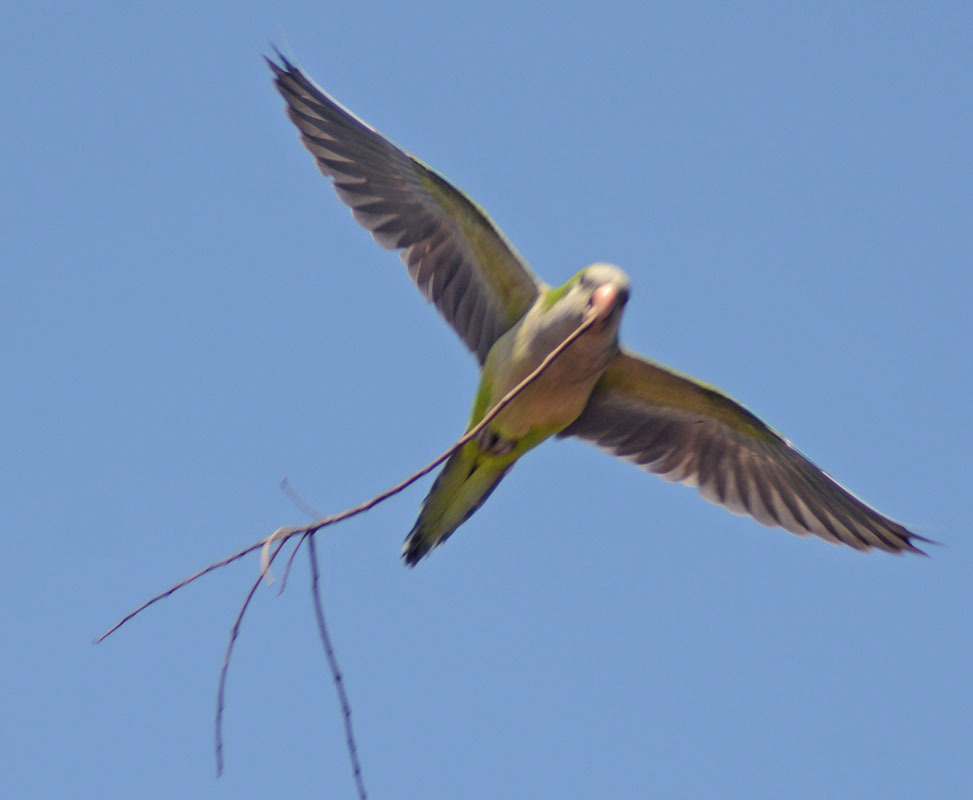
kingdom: Animalia
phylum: Chordata
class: Aves
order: Psittaciformes
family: Psittacidae
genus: Myiopsitta
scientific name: Myiopsitta monachus
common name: Monk parakeet
